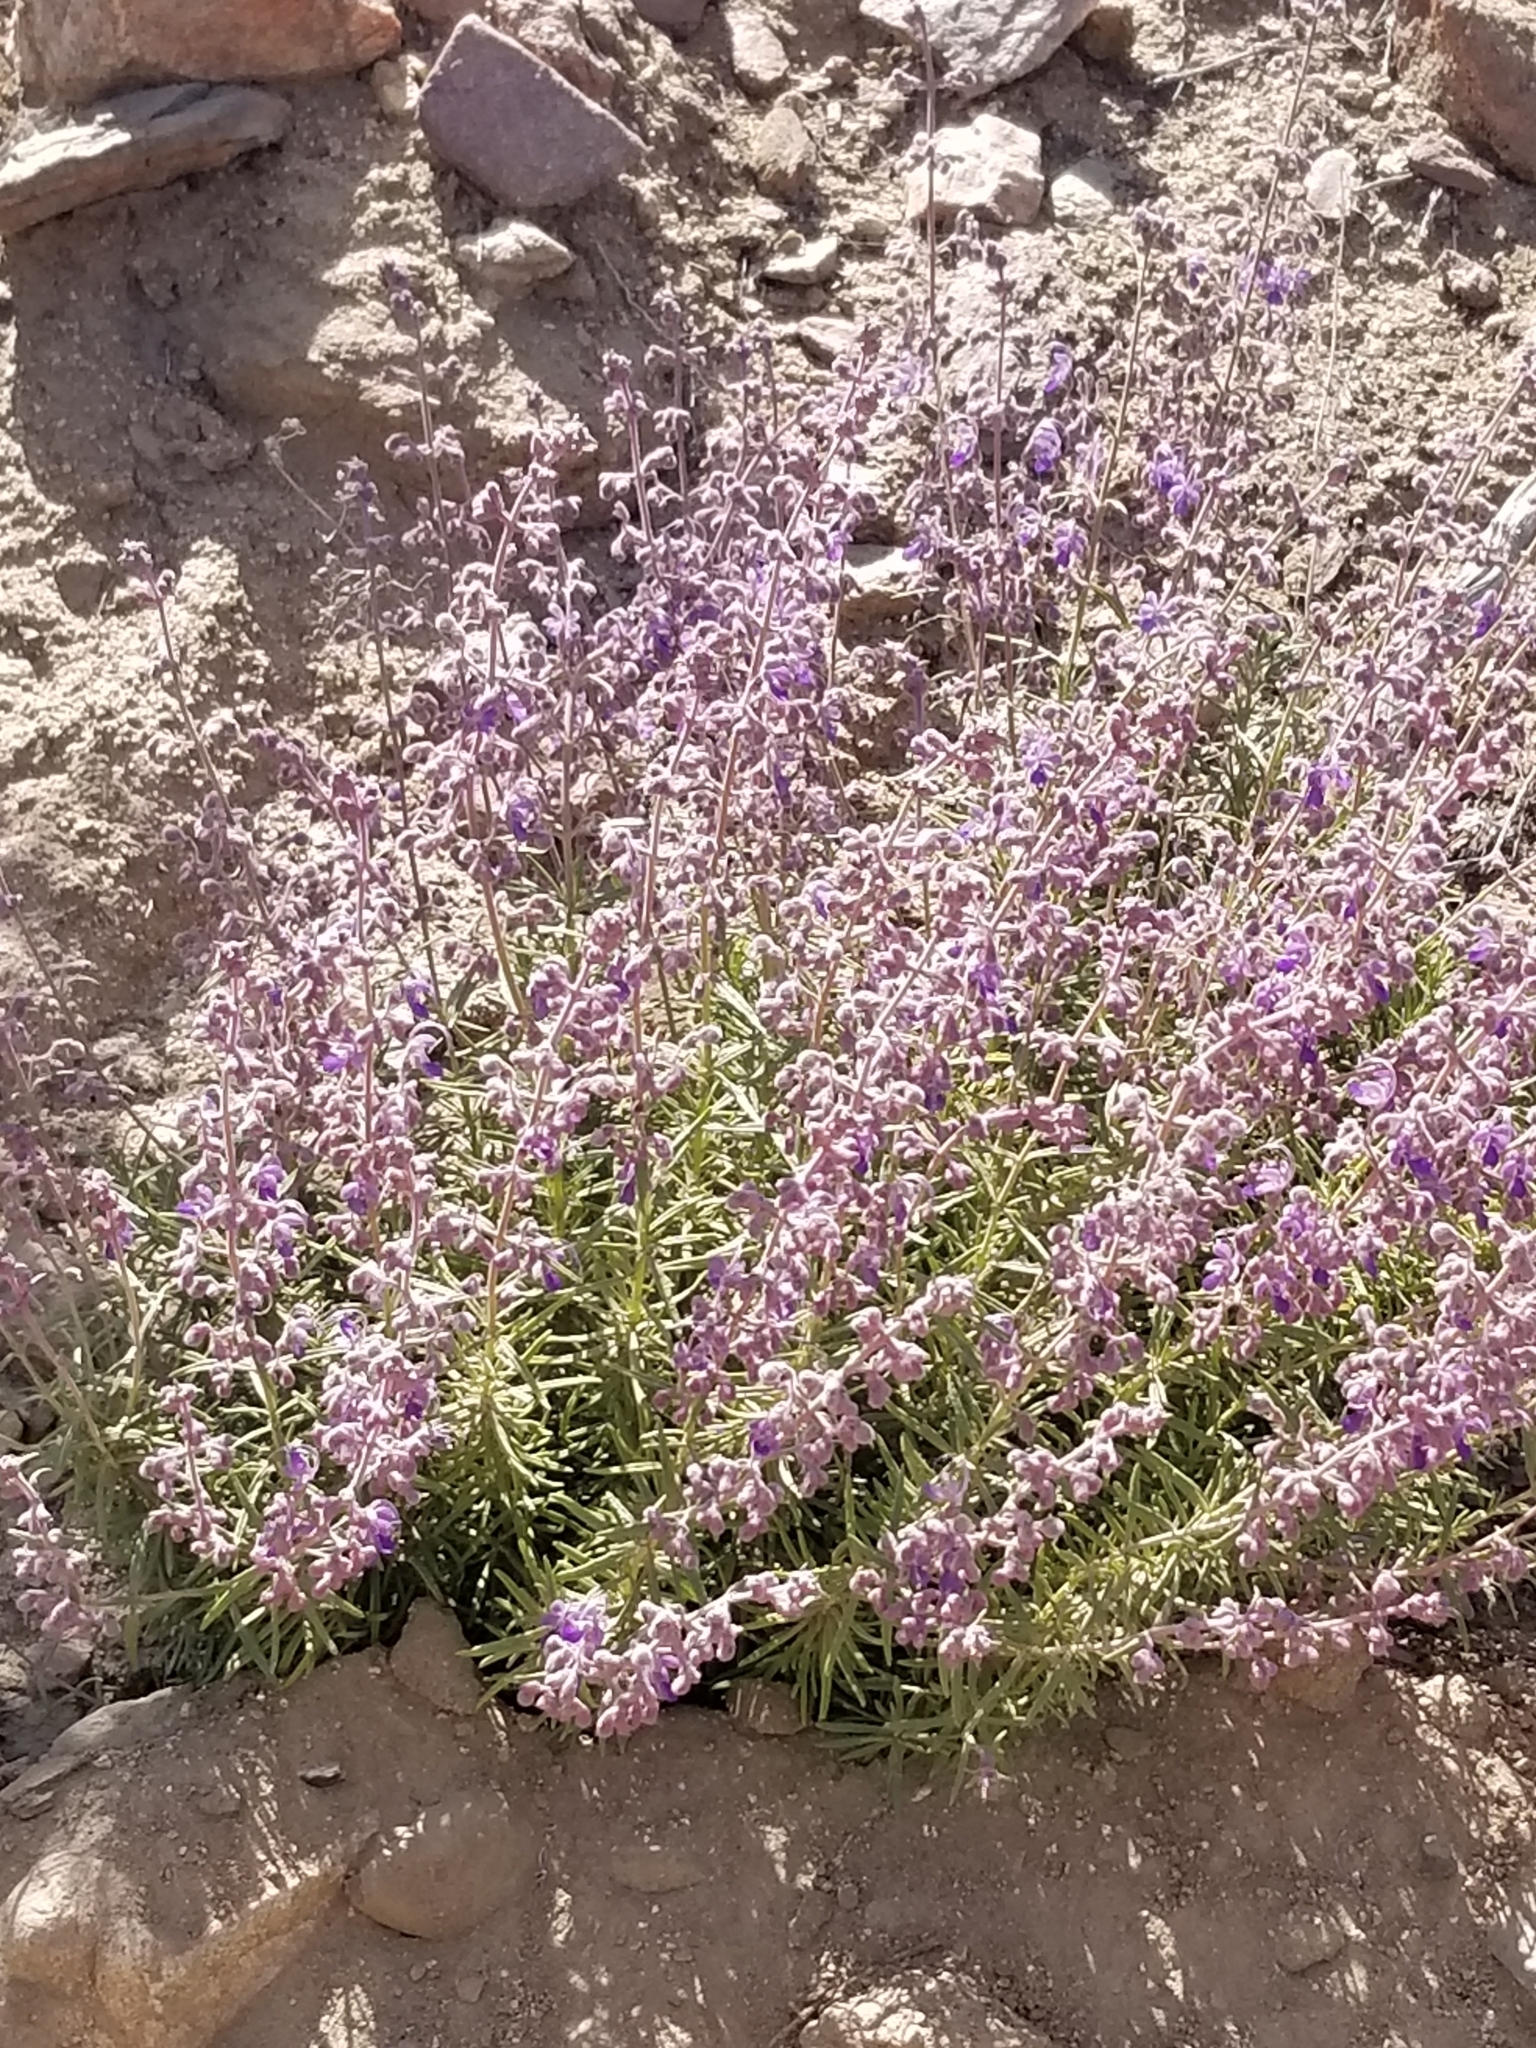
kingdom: Plantae
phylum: Tracheophyta
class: Magnoliopsida
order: Lamiales
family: Lamiaceae
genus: Trichostema
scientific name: Trichostema parishii
